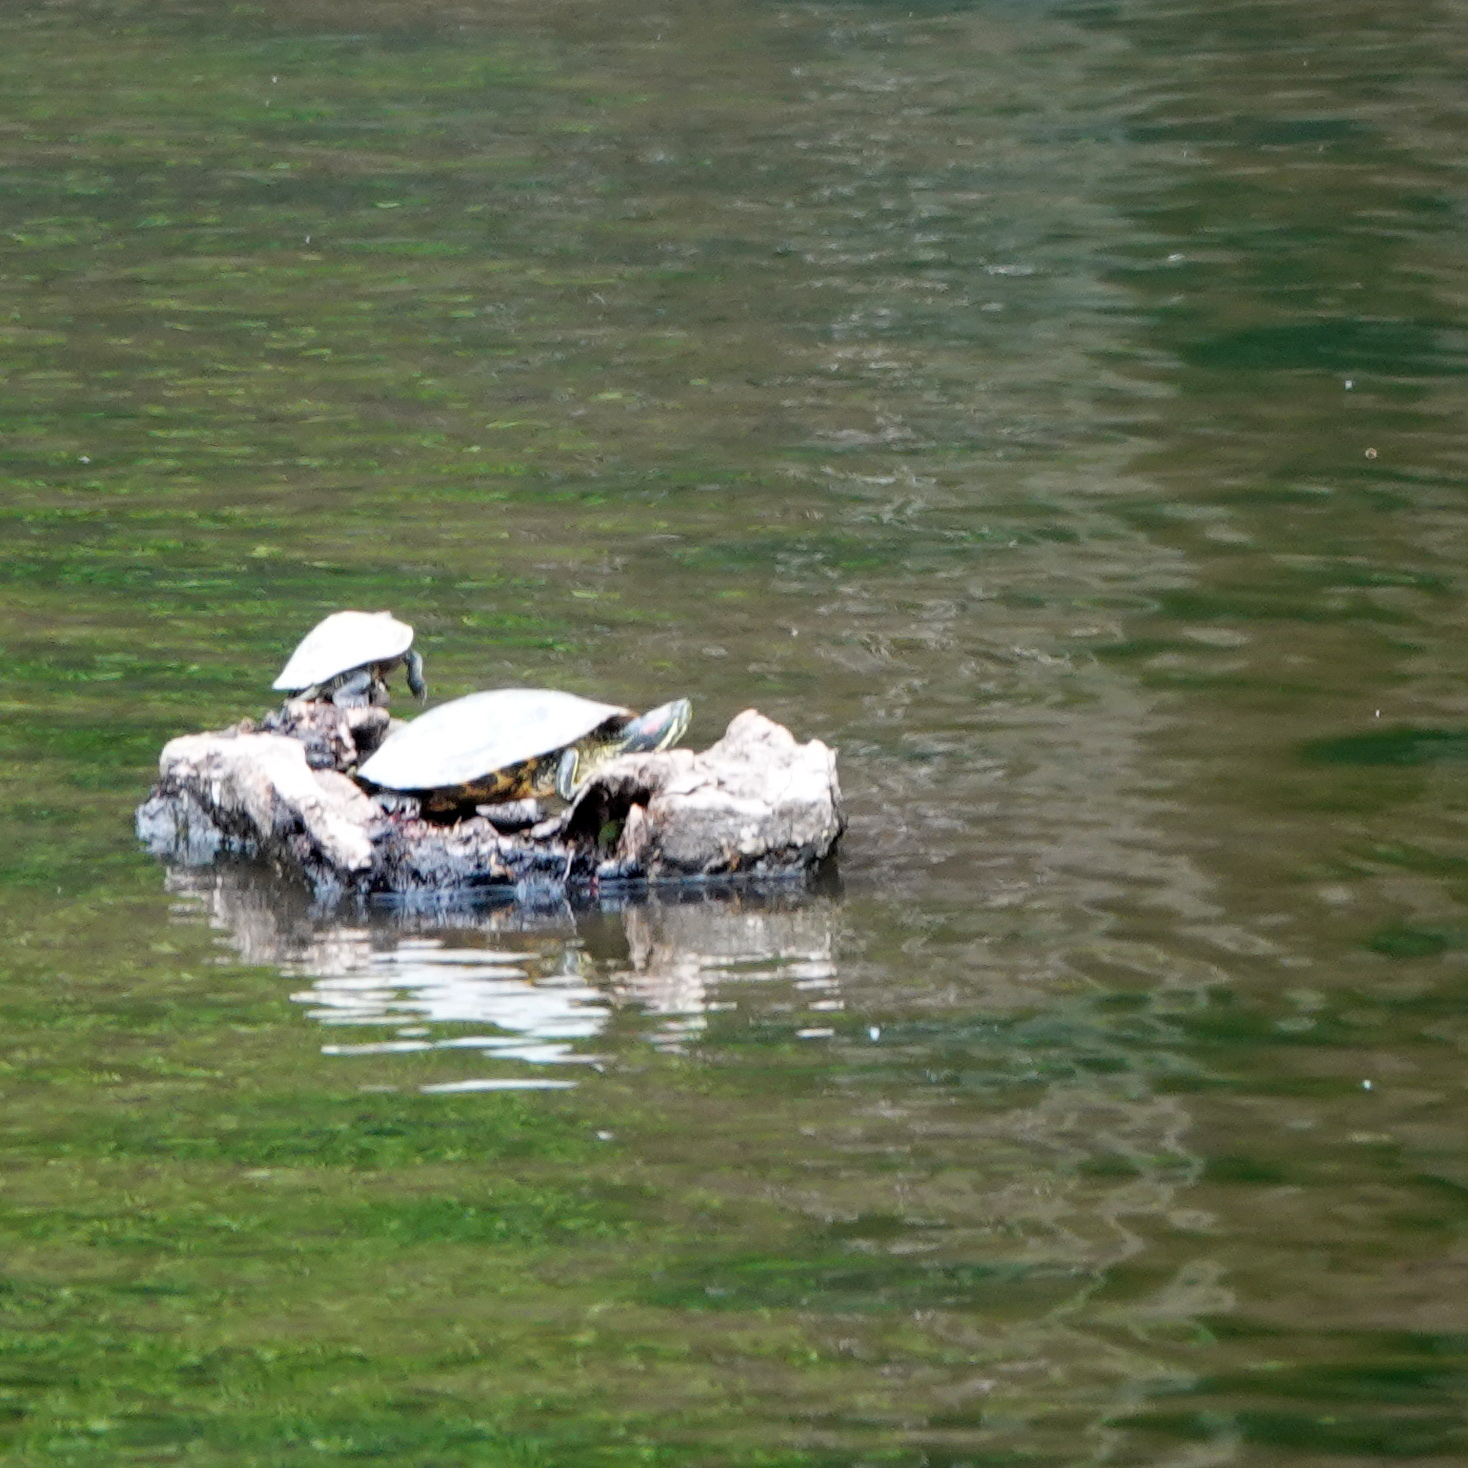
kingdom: Animalia
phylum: Chordata
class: Testudines
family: Emydidae
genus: Trachemys
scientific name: Trachemys scripta
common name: Slider
